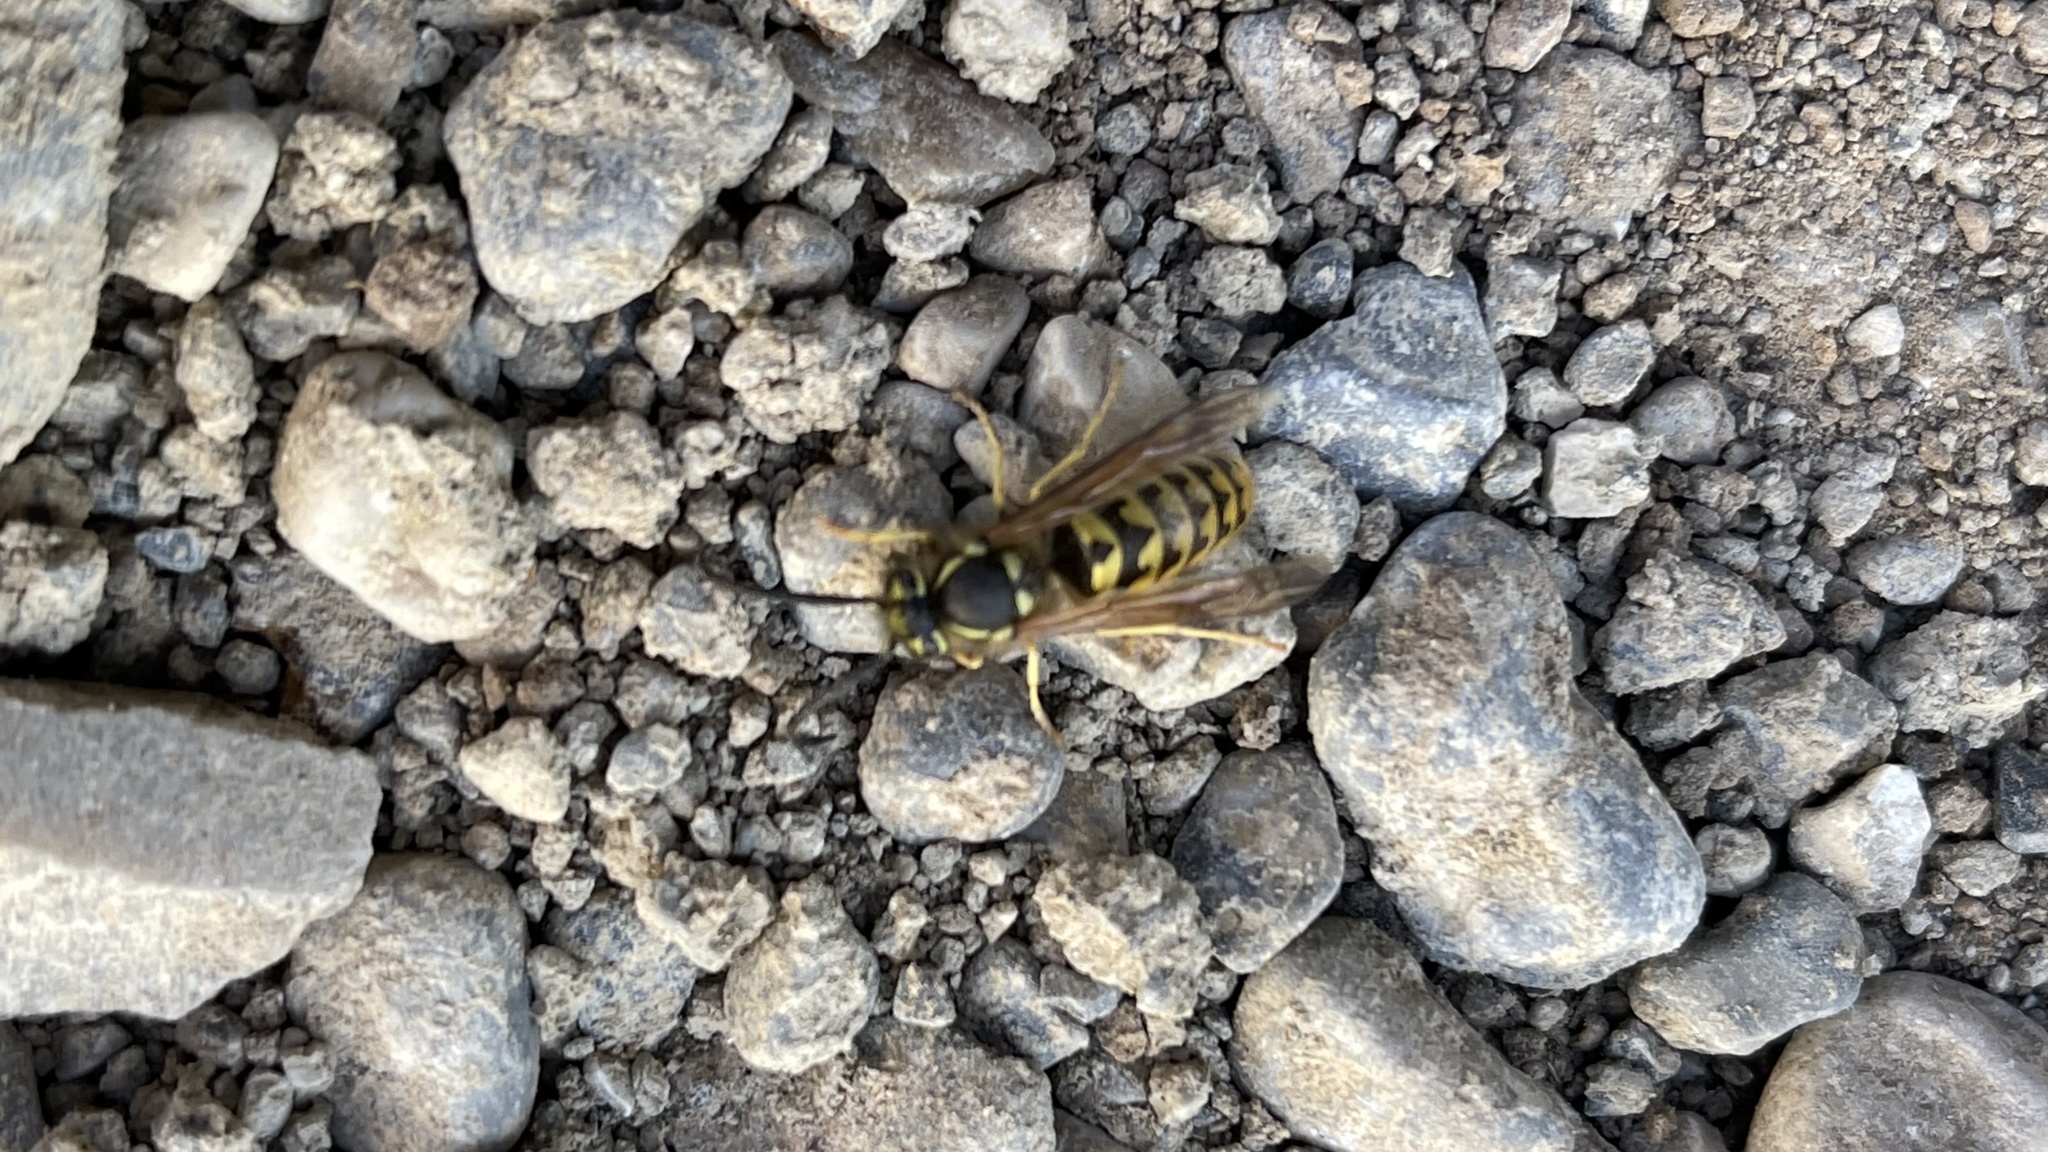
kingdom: Animalia
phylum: Arthropoda
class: Insecta
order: Hymenoptera
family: Vespidae
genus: Vespula
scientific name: Vespula pensylvanica
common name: Western yellowjacket
